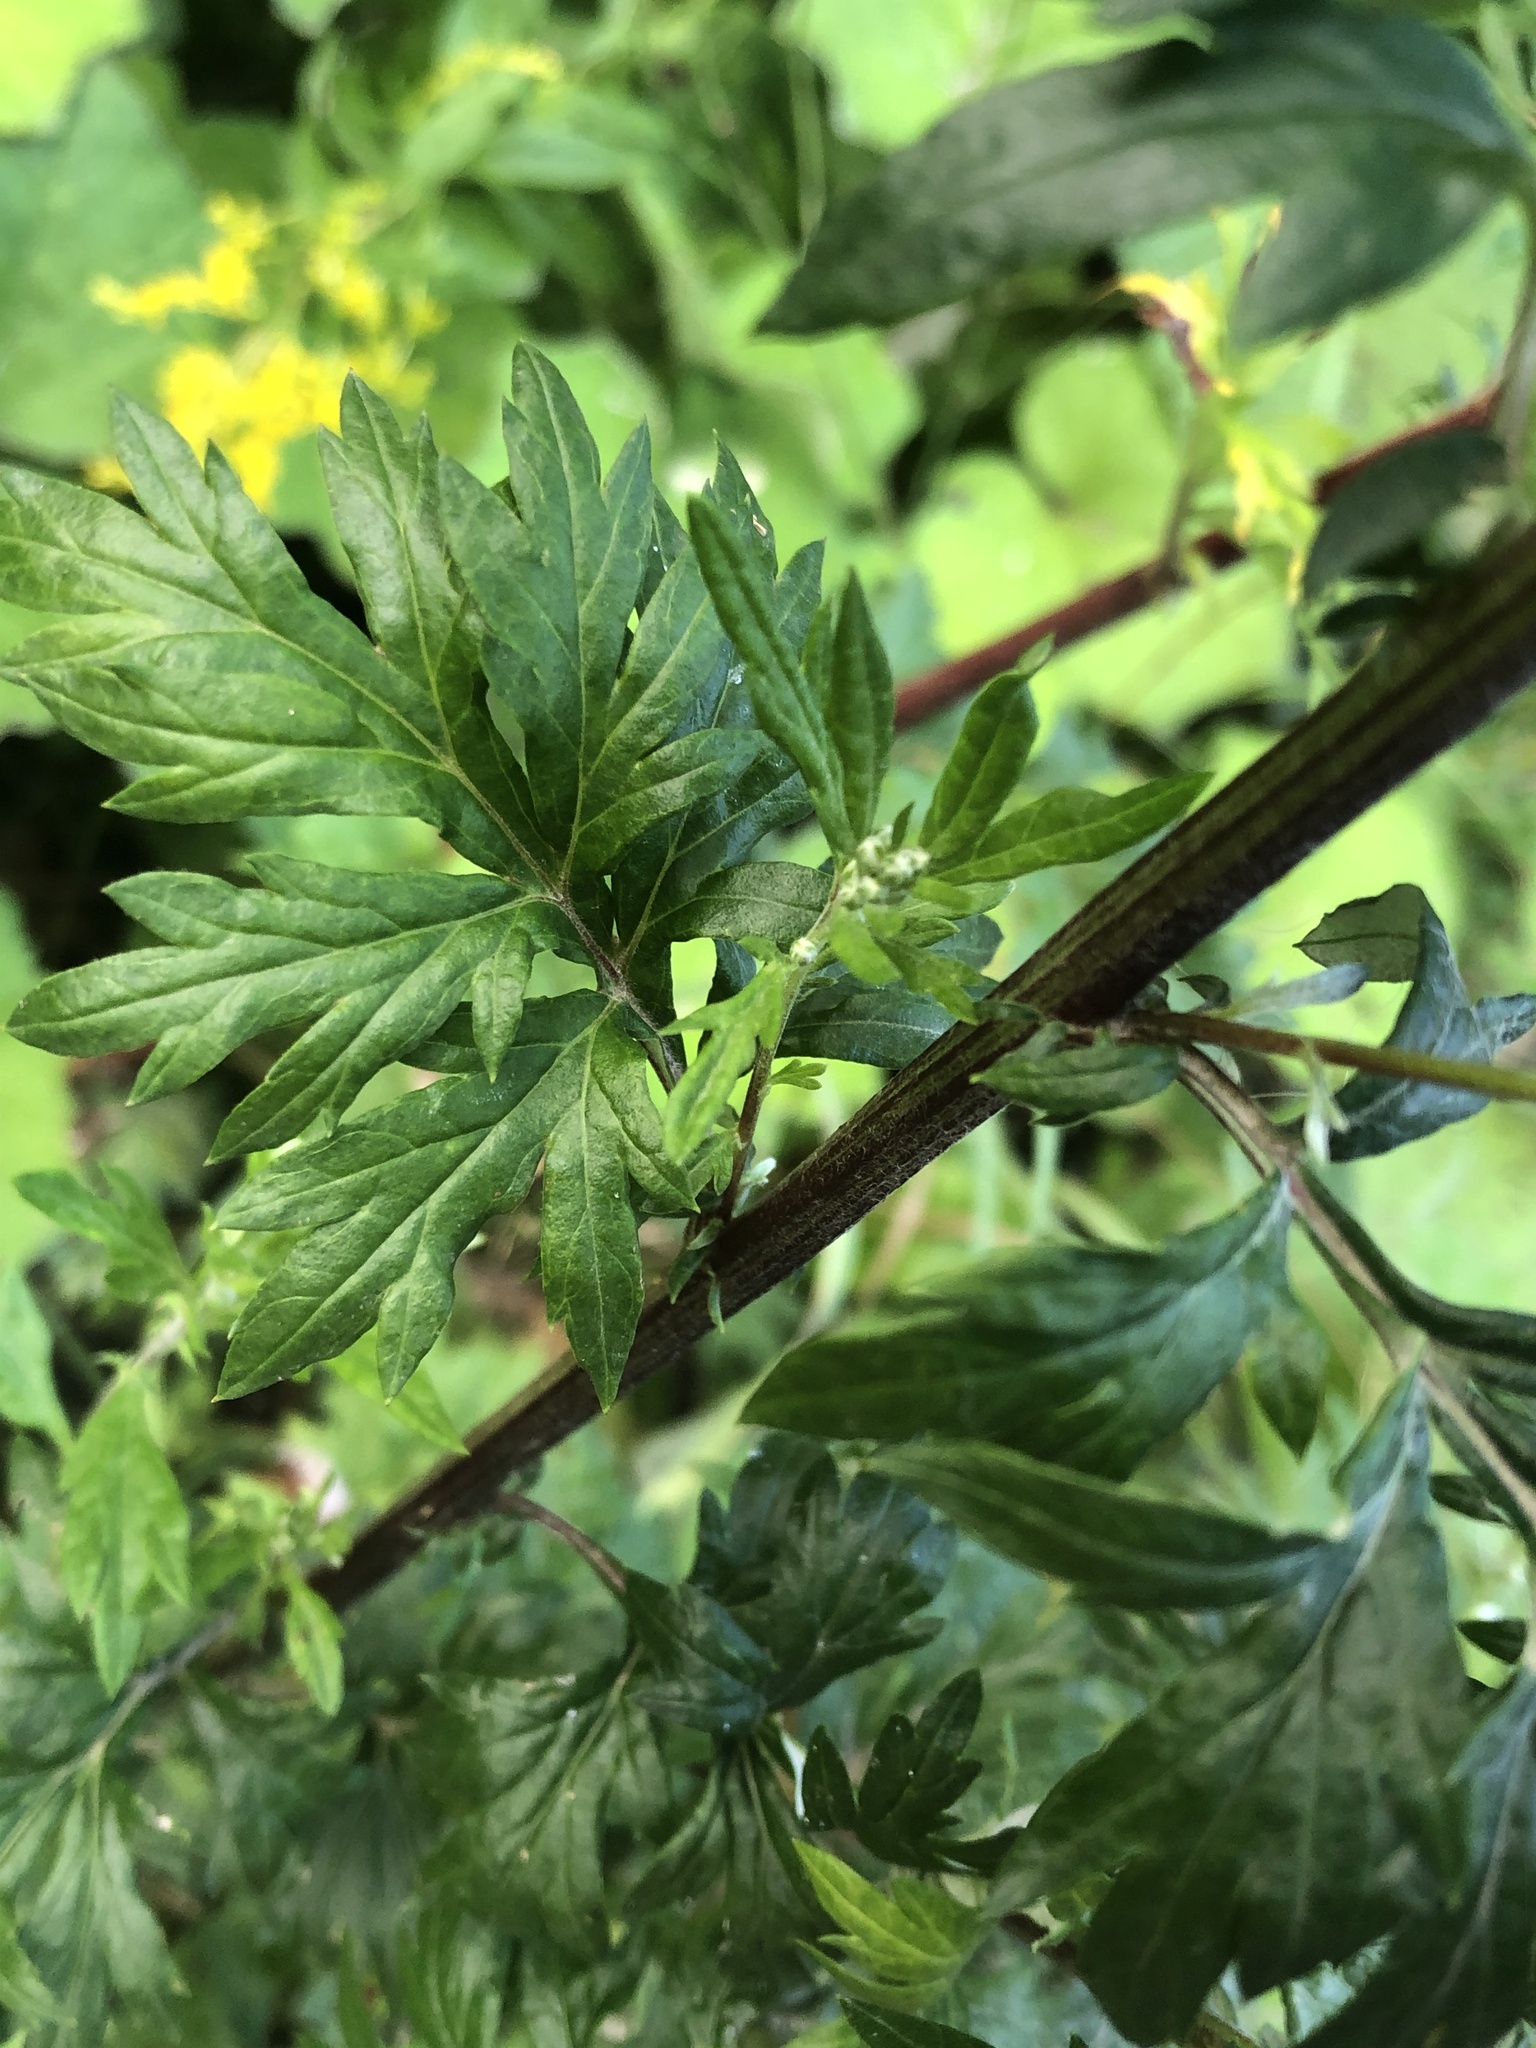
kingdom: Plantae
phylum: Tracheophyta
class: Magnoliopsida
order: Asterales
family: Asteraceae
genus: Artemisia
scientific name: Artemisia vulgaris
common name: Mugwort
